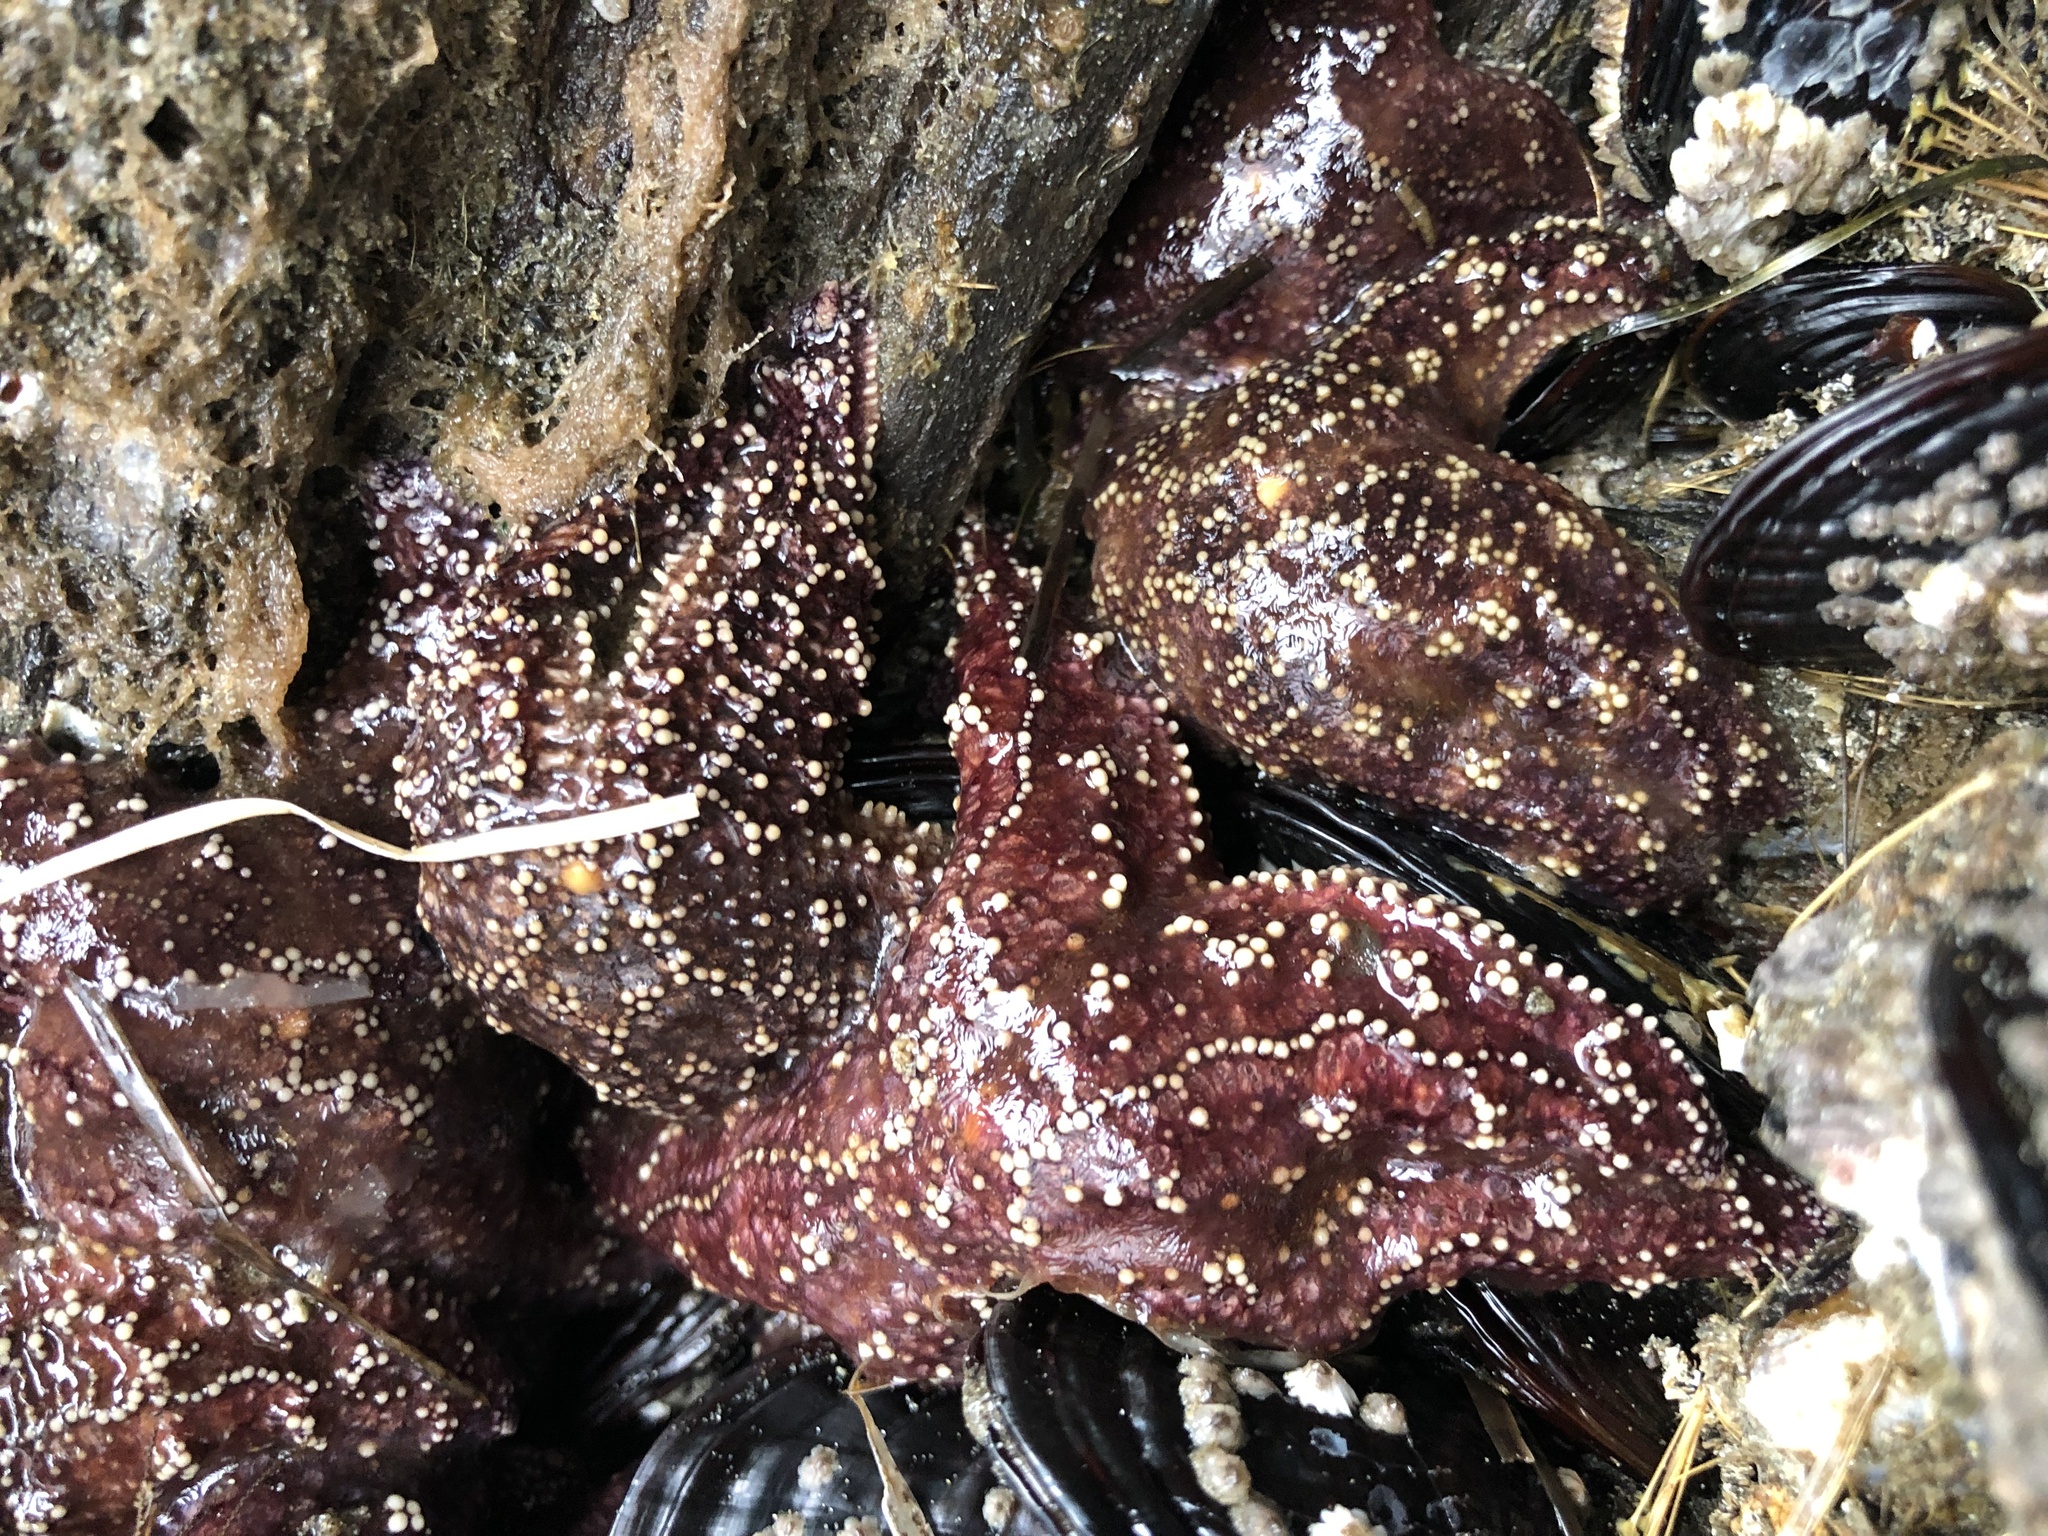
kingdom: Animalia
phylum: Echinodermata
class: Asteroidea
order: Forcipulatida
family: Asteriidae
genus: Pisaster
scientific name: Pisaster ochraceus
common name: Ochre stars
